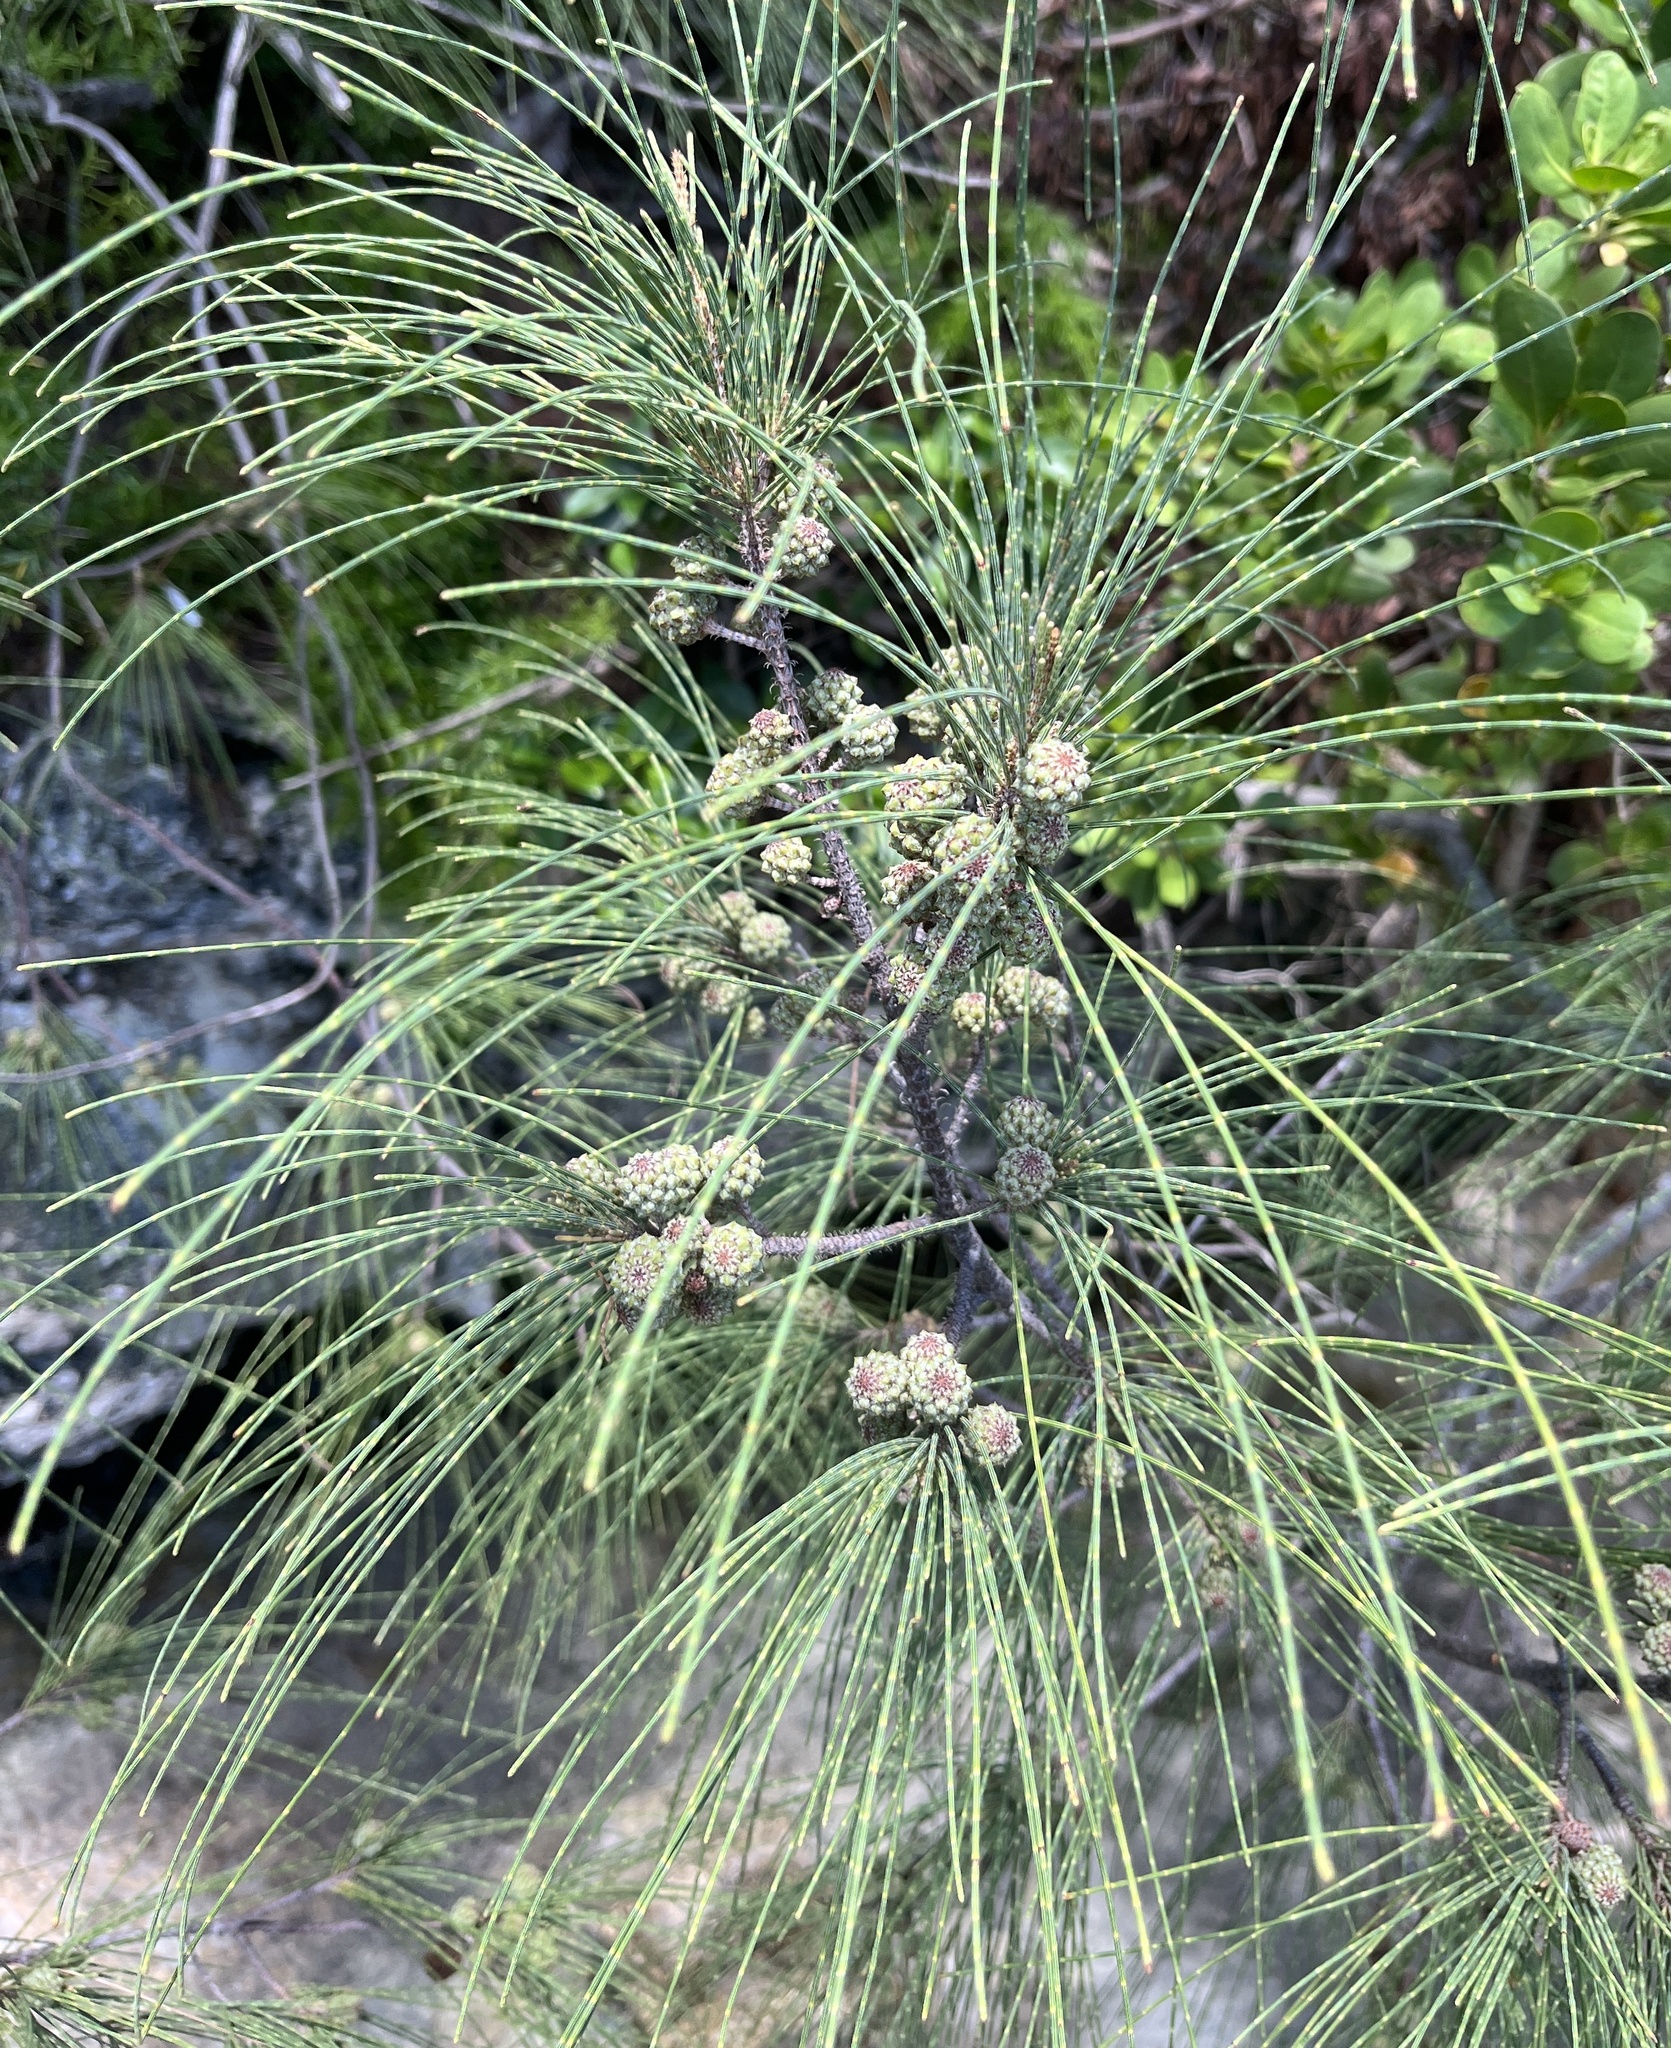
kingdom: Plantae
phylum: Tracheophyta
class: Magnoliopsida
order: Fagales
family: Casuarinaceae
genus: Casuarina
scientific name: Casuarina equisetifolia
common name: Beach sheoak
